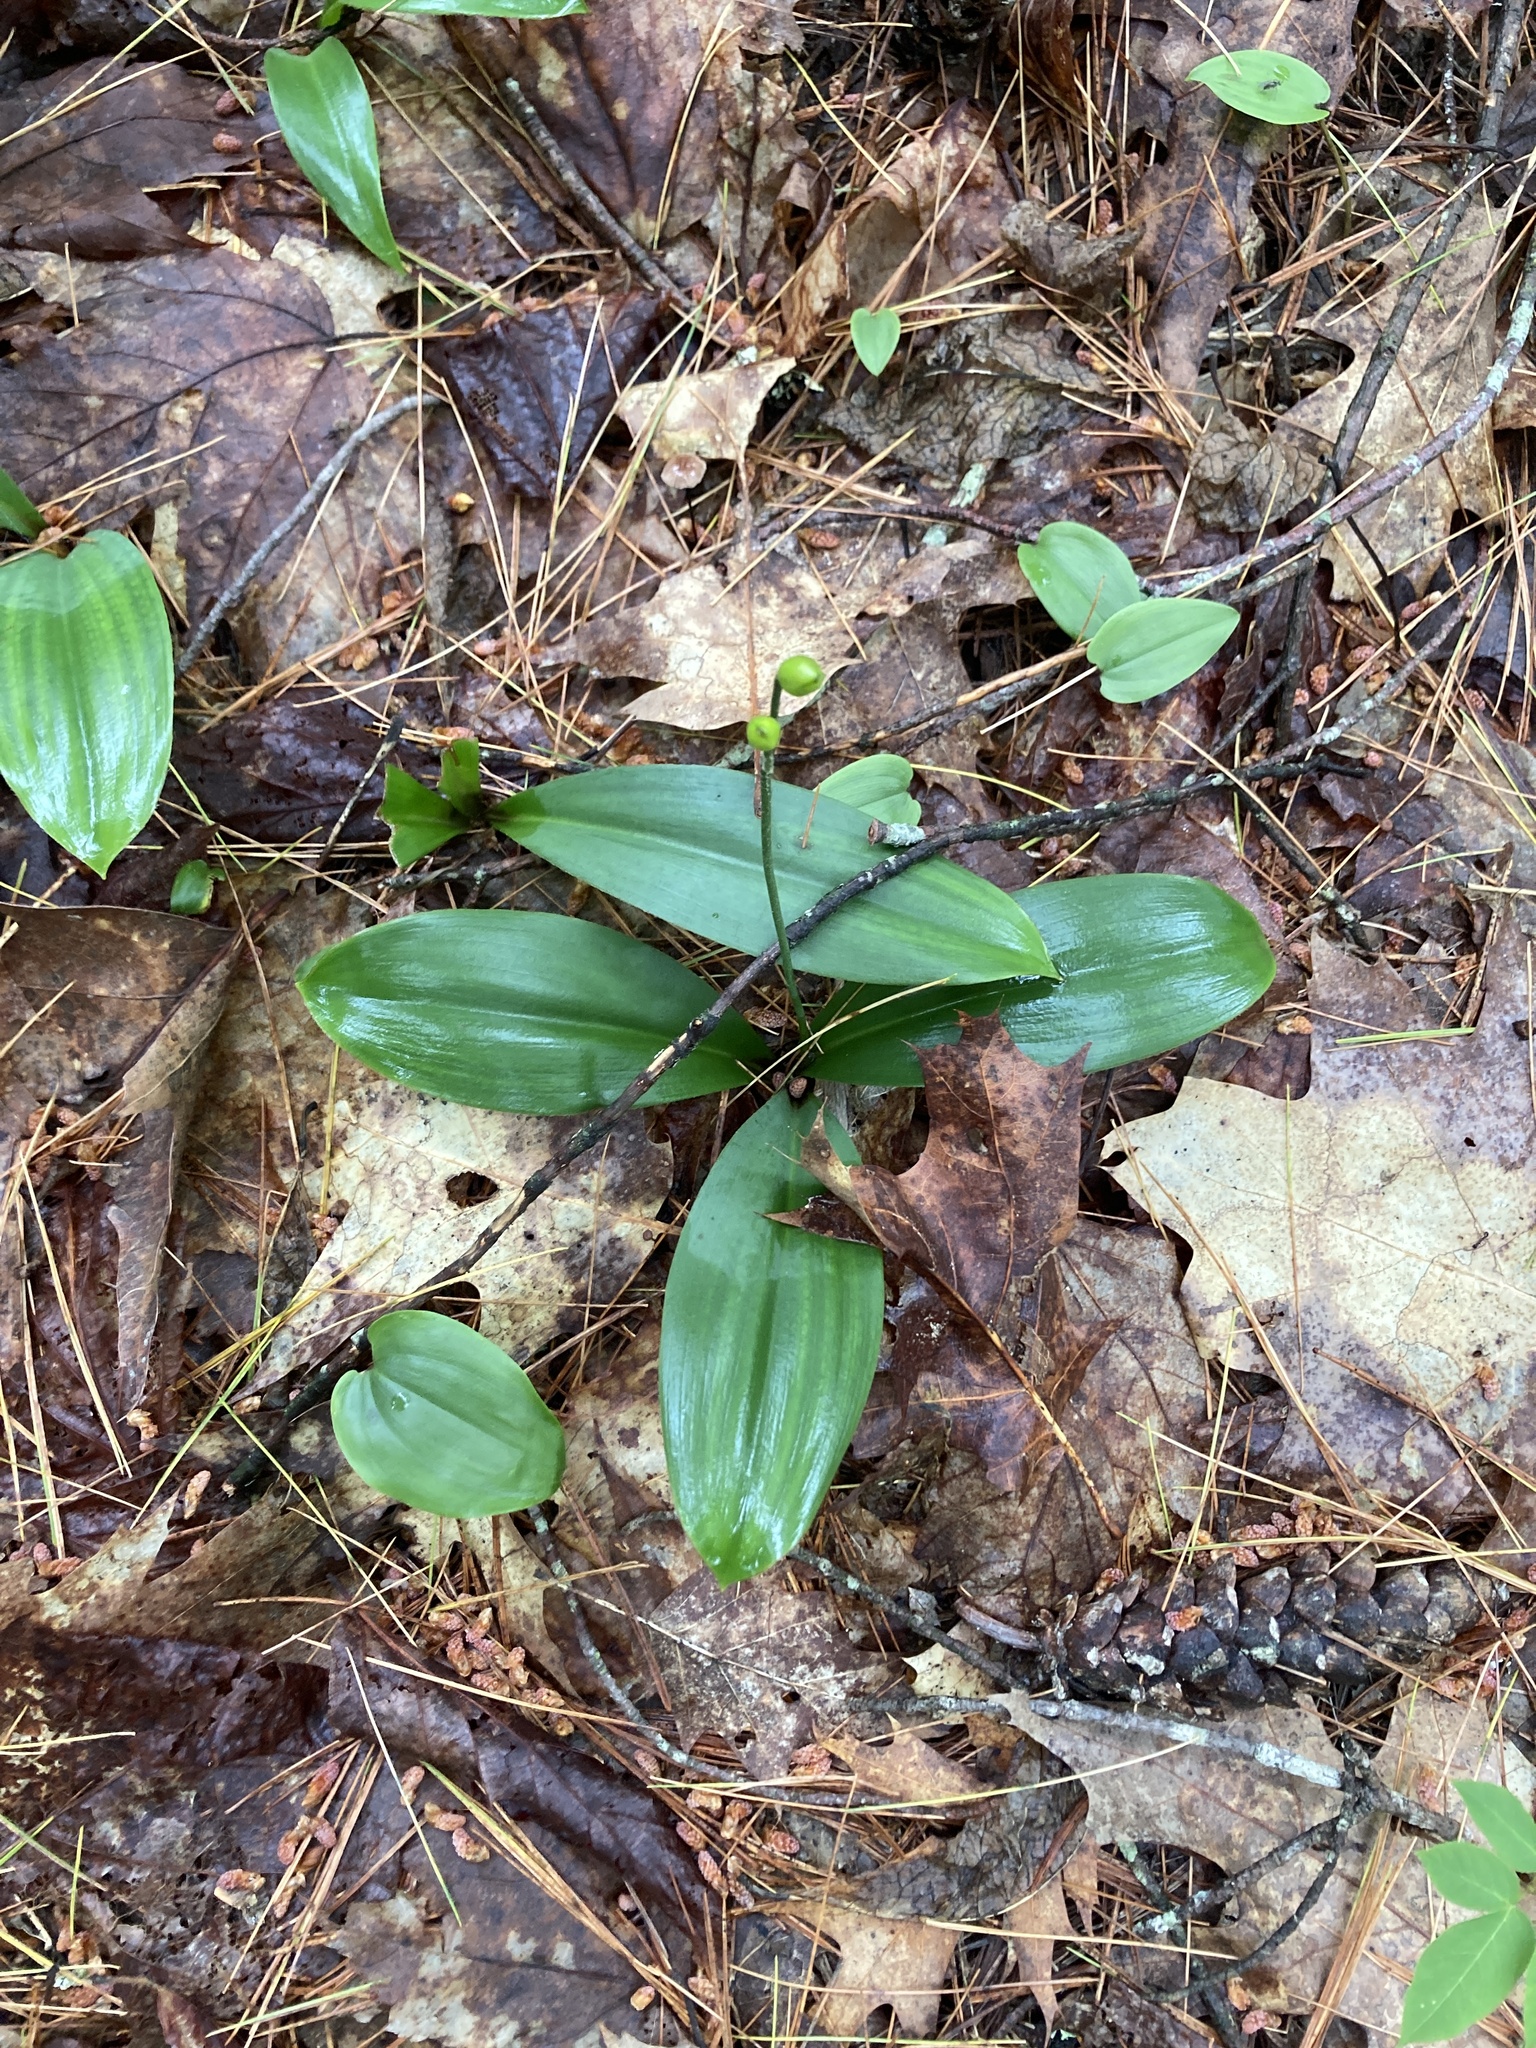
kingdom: Plantae
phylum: Tracheophyta
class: Liliopsida
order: Liliales
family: Liliaceae
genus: Clintonia
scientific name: Clintonia borealis
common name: Yellow clintonia
